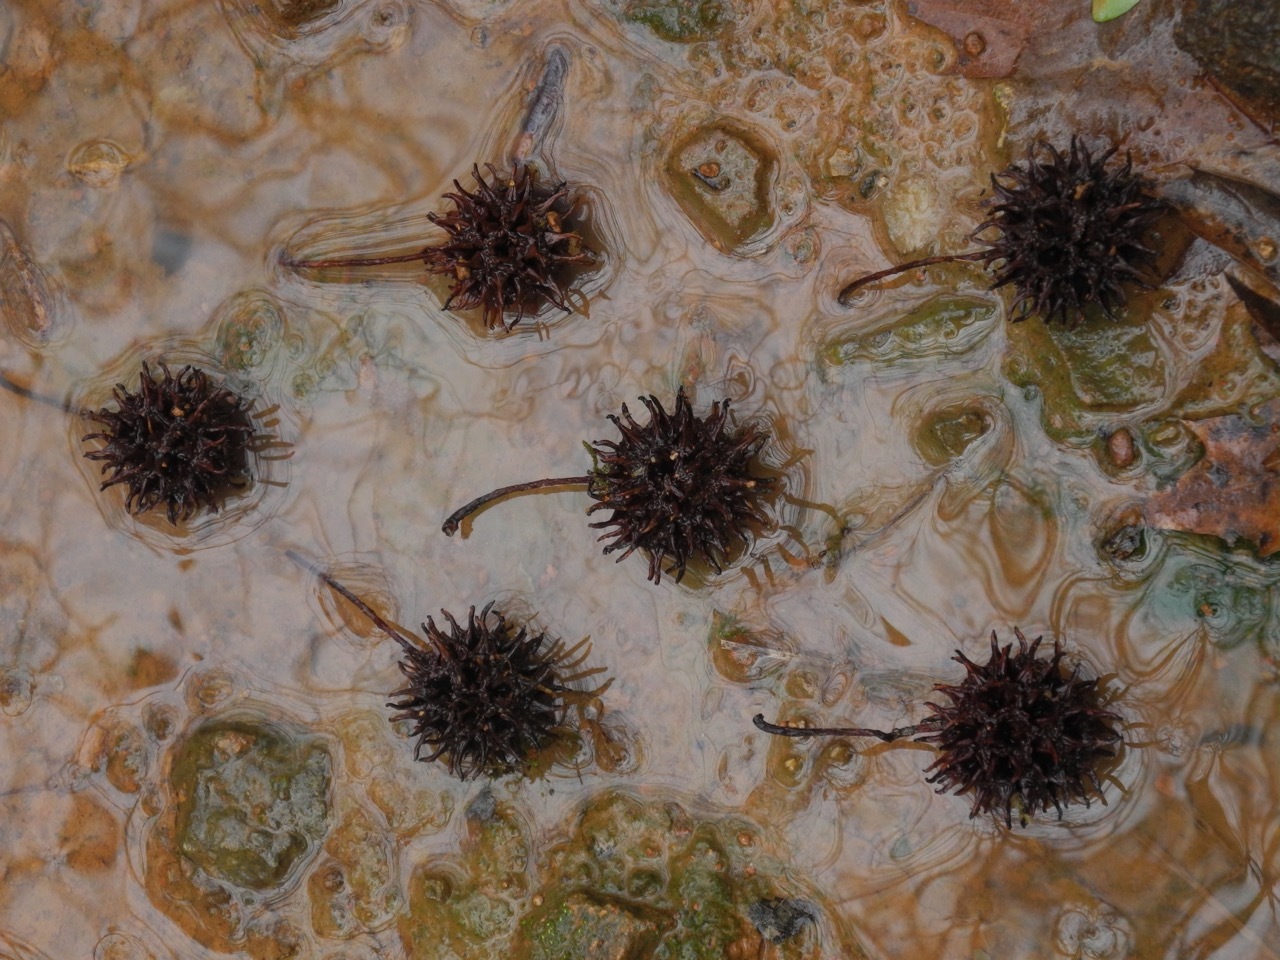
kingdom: Plantae
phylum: Tracheophyta
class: Magnoliopsida
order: Saxifragales
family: Altingiaceae
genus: Liquidambar
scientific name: Liquidambar styraciflua
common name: Sweet gum
